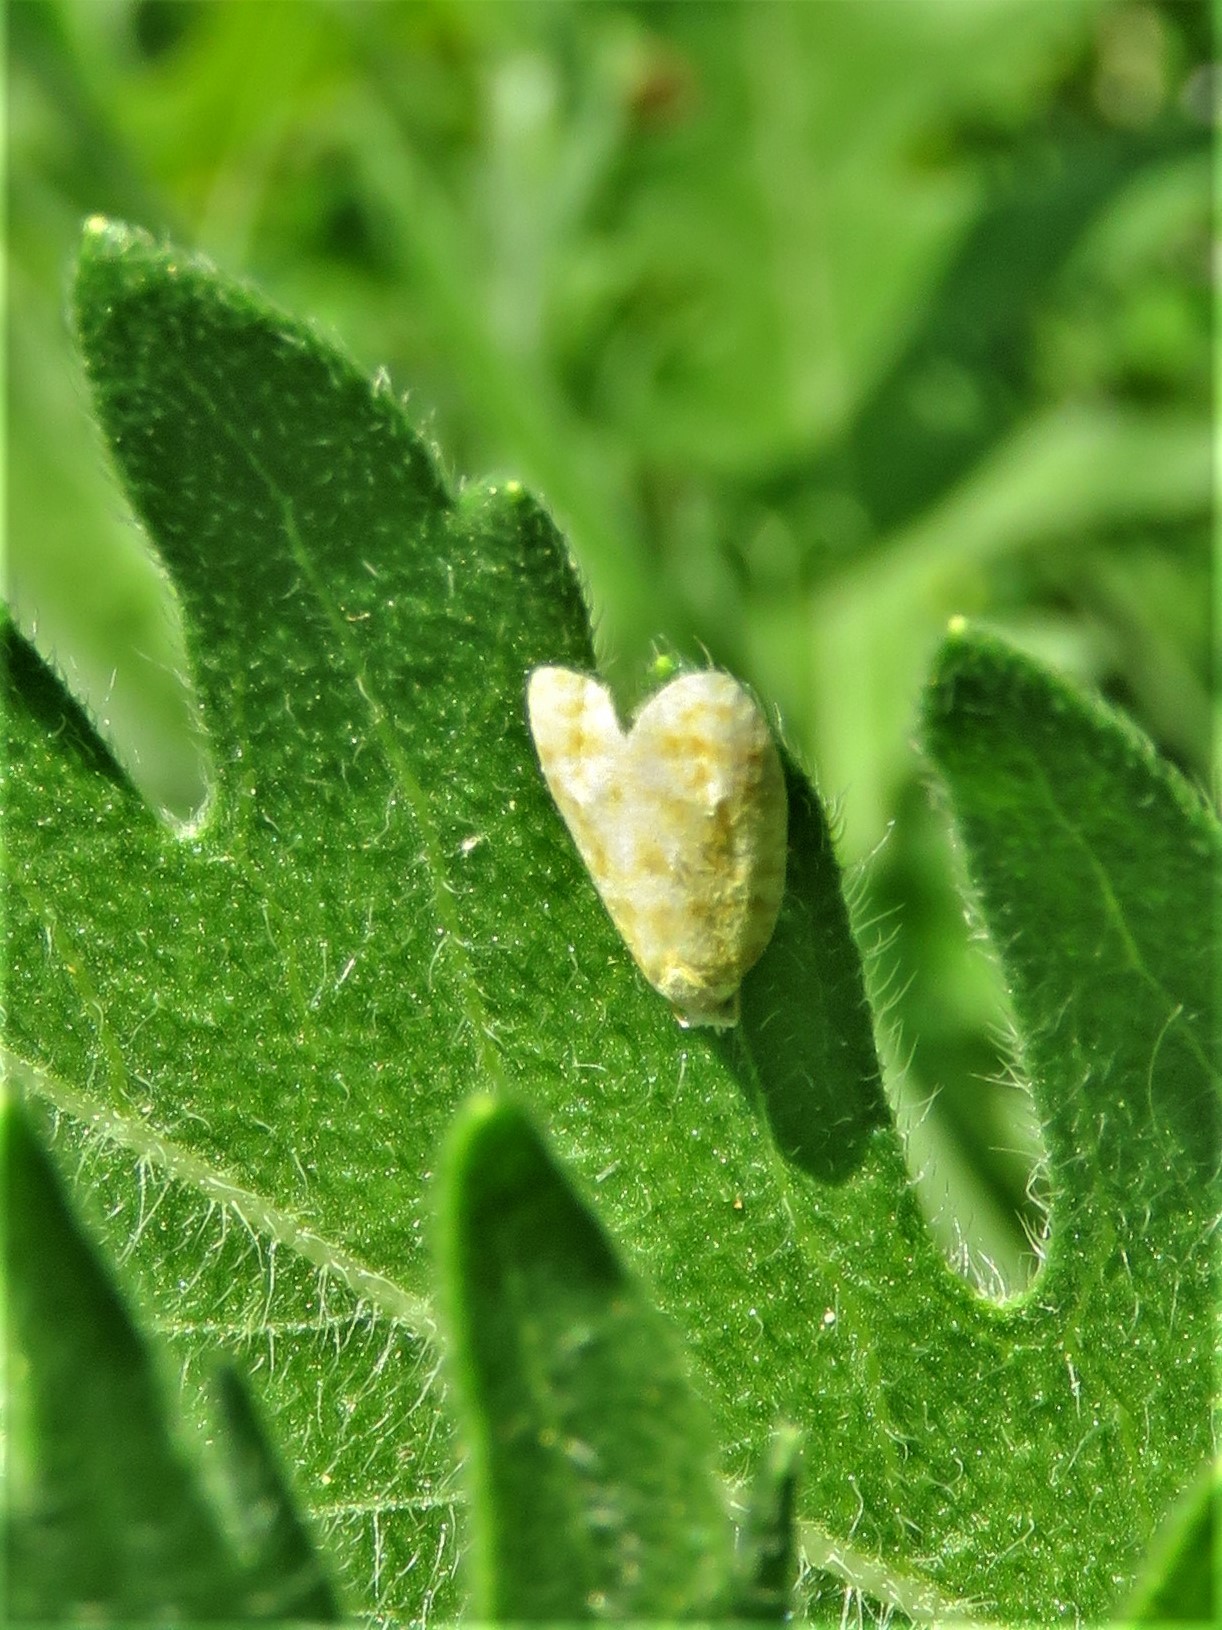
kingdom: Animalia
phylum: Arthropoda
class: Insecta
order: Lepidoptera
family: Tortricidae
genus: Acleris
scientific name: Acleris semipurpurana
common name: Oak leaftier moth
